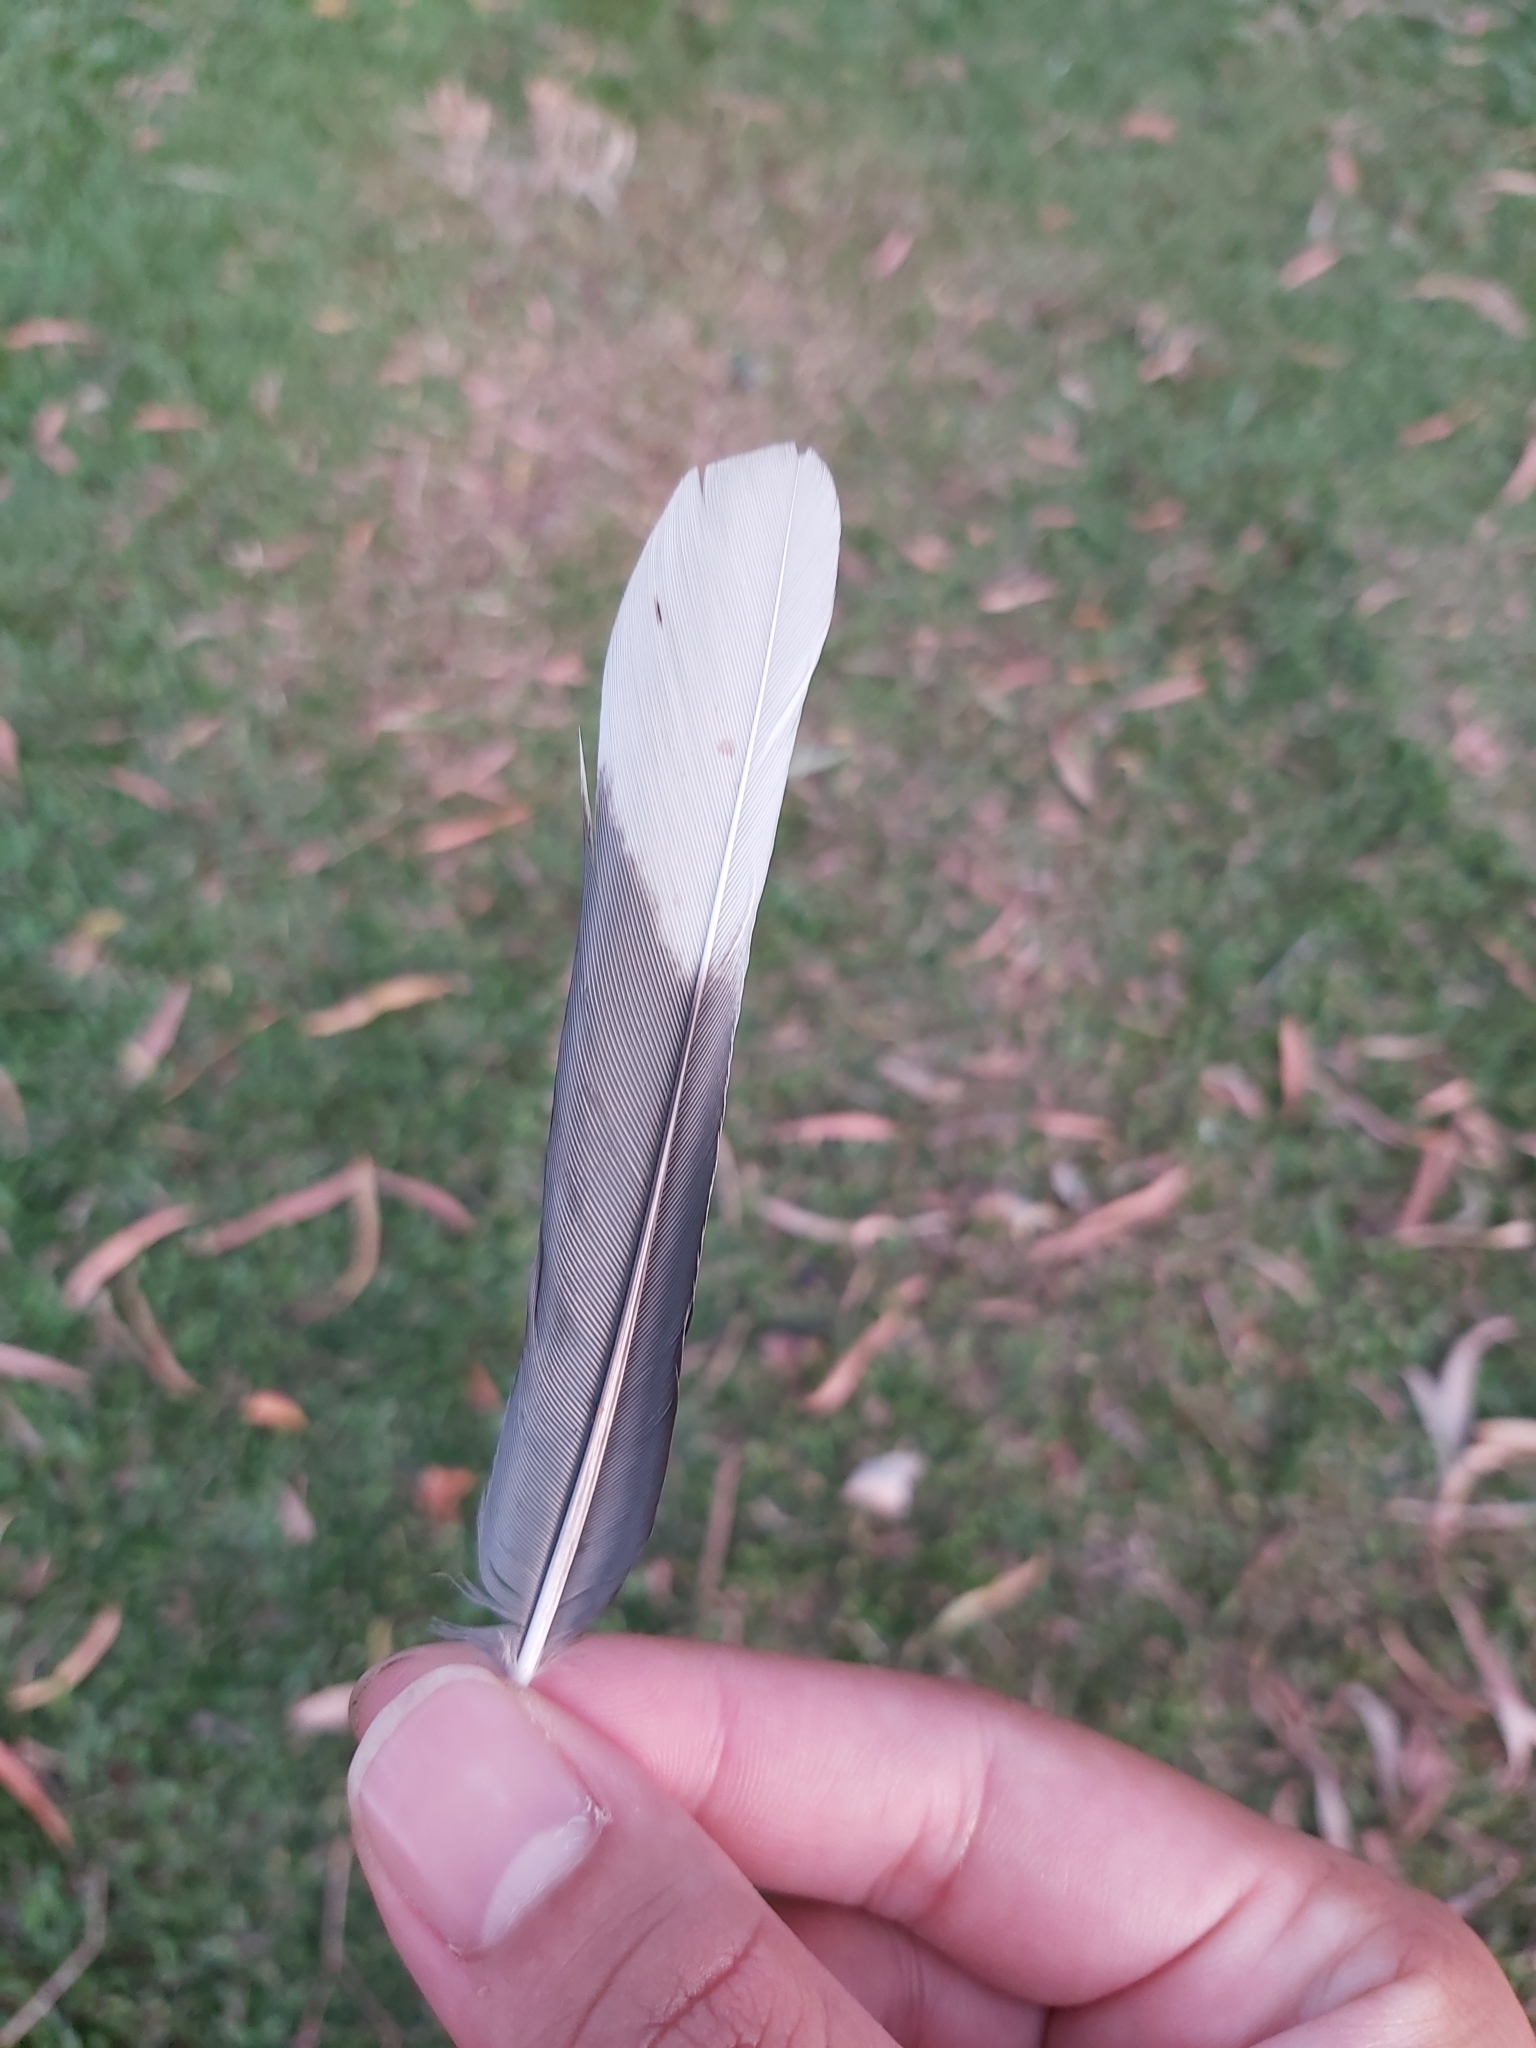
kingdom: Animalia
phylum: Chordata
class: Aves
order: Passeriformes
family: Oriolidae
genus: Sphecotheres
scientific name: Sphecotheres vieilloti
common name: Australasian figbird
